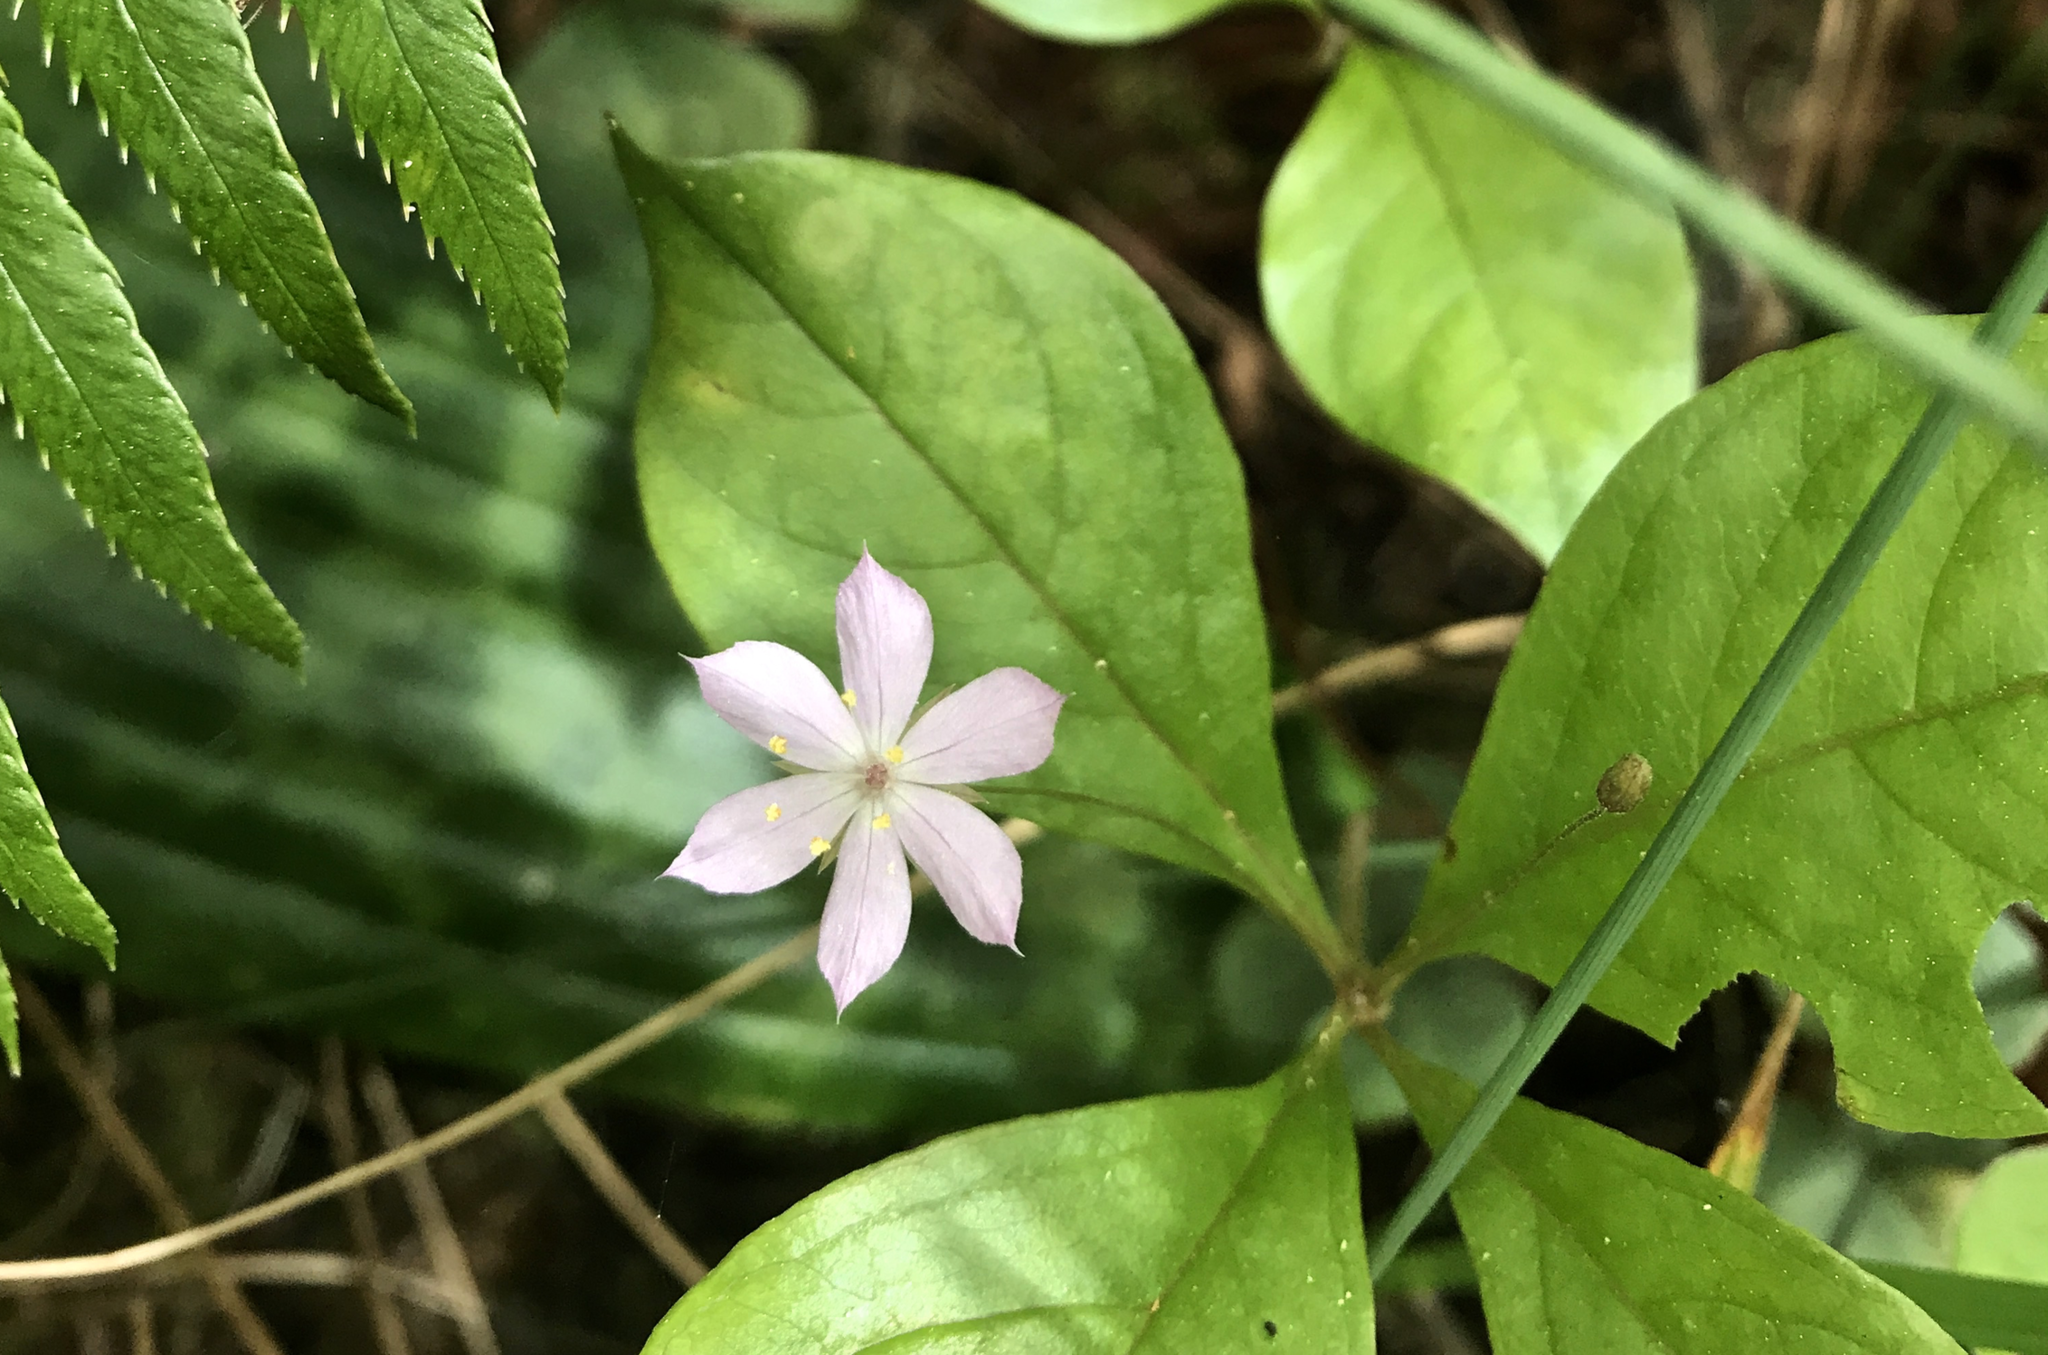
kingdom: Plantae
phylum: Tracheophyta
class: Magnoliopsida
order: Ericales
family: Primulaceae
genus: Lysimachia
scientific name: Lysimachia latifolia
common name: Pacific starflower
